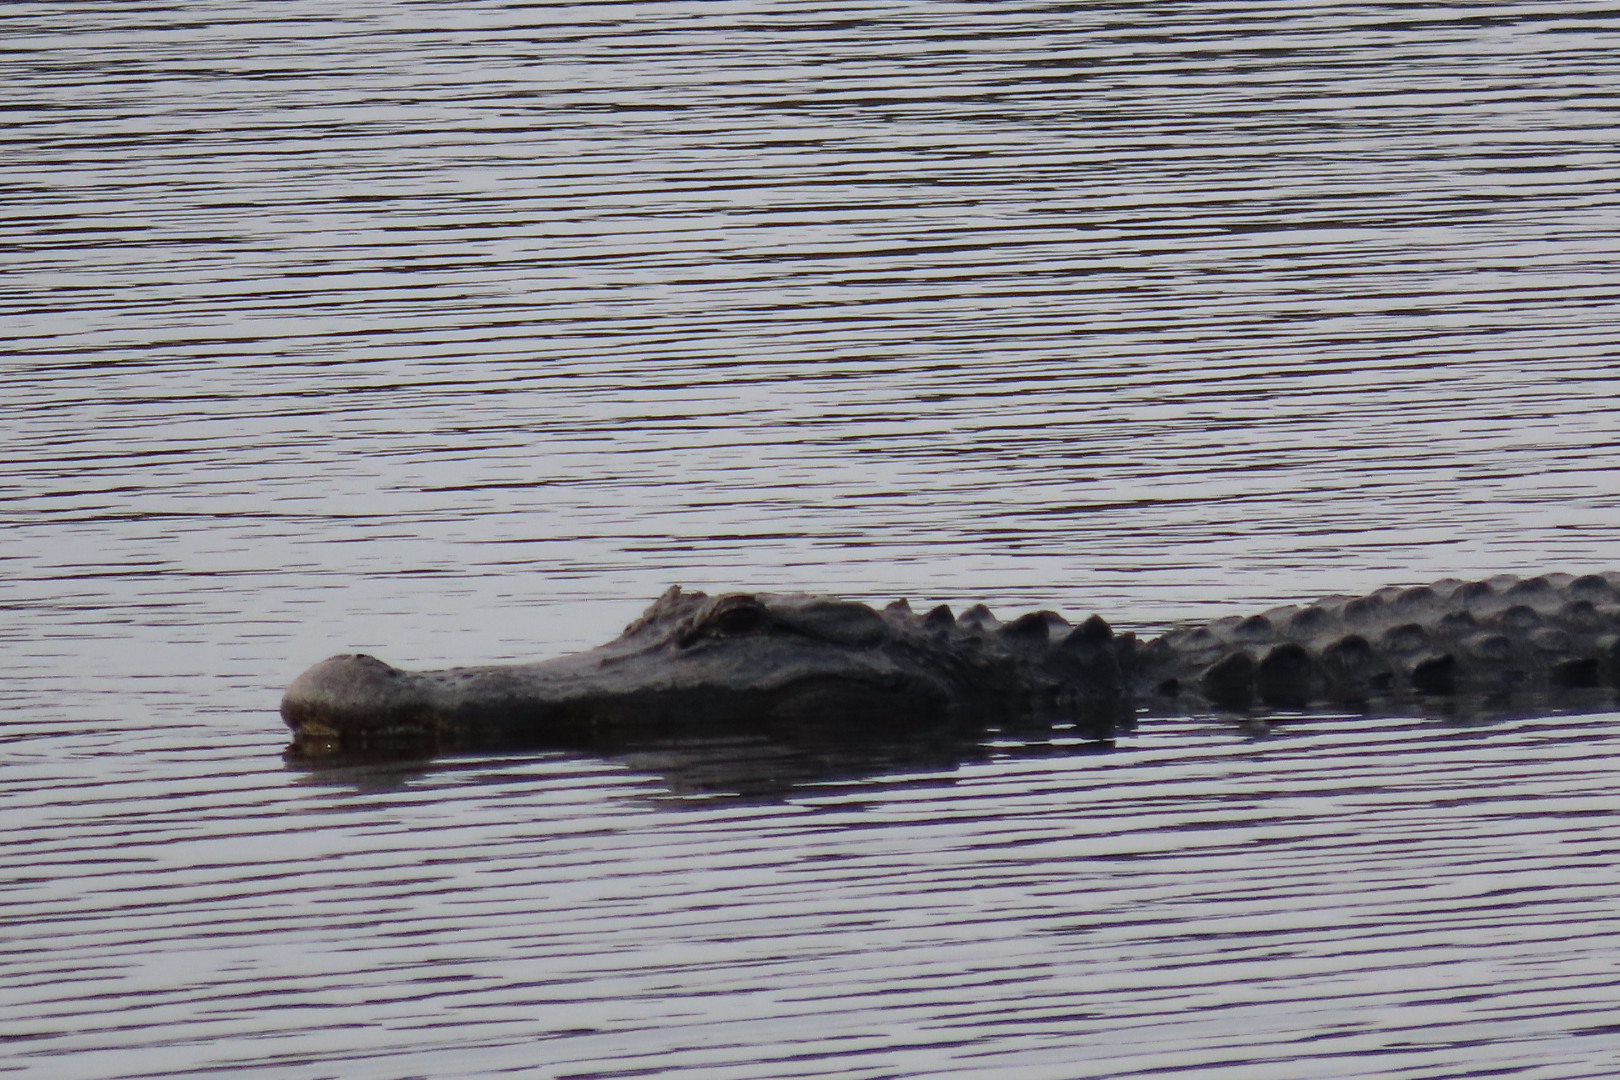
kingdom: Animalia
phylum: Chordata
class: Crocodylia
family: Alligatoridae
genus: Alligator
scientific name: Alligator mississippiensis
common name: American alligator
